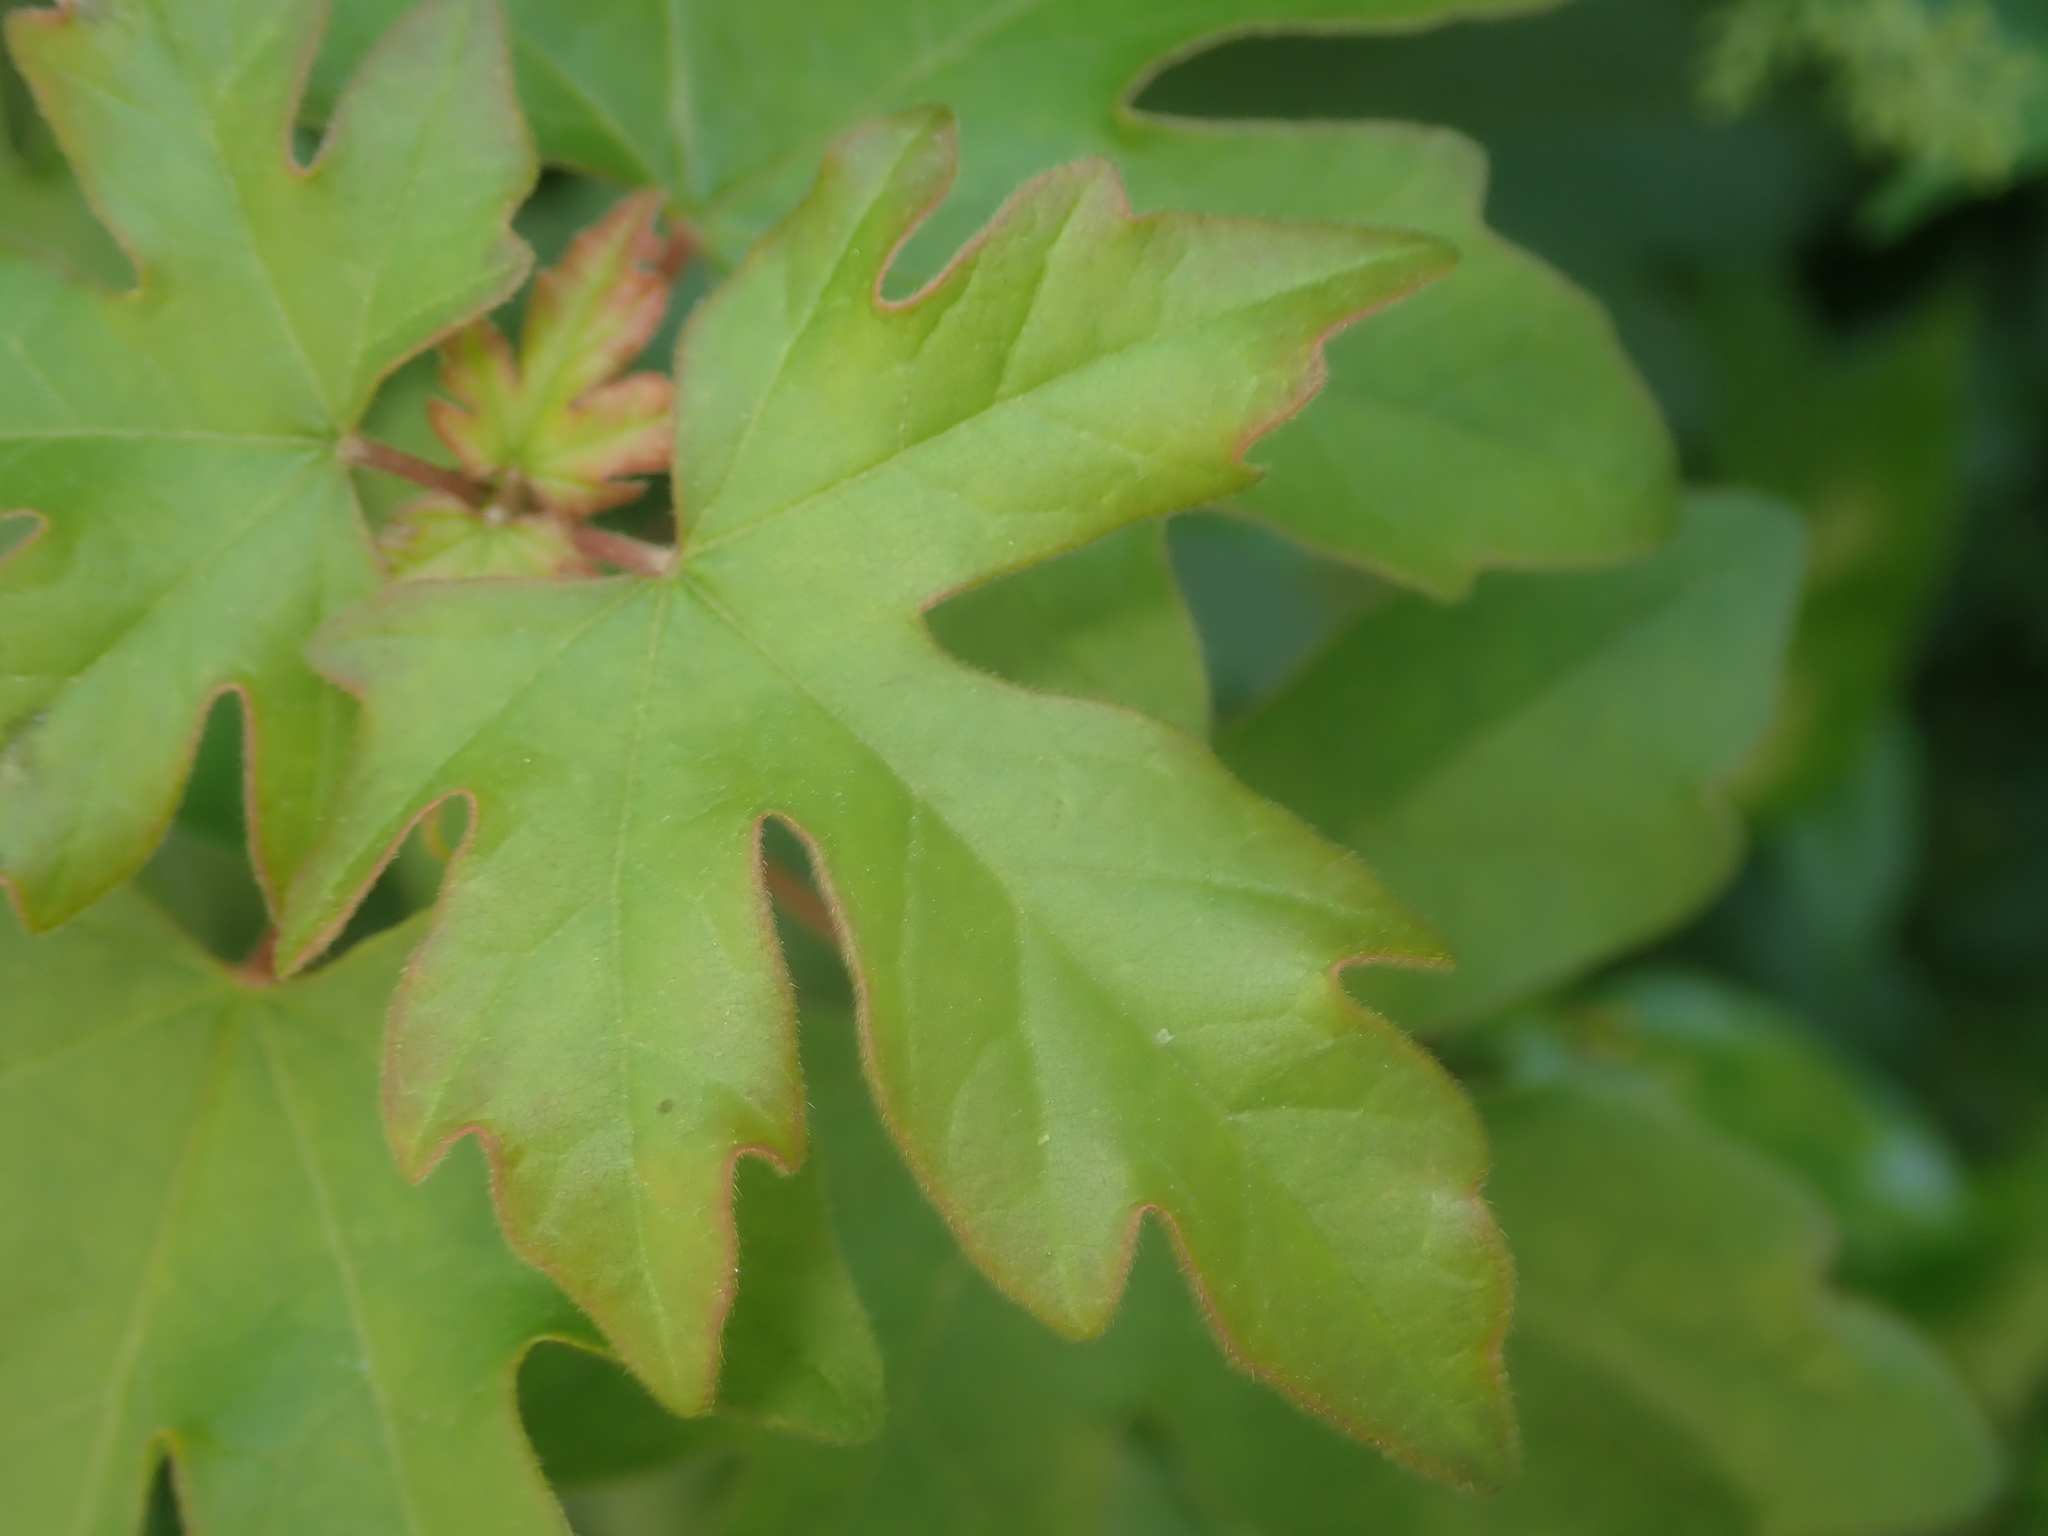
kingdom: Plantae
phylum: Tracheophyta
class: Magnoliopsida
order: Sapindales
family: Sapindaceae
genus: Acer
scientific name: Acer campestre
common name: Field maple
